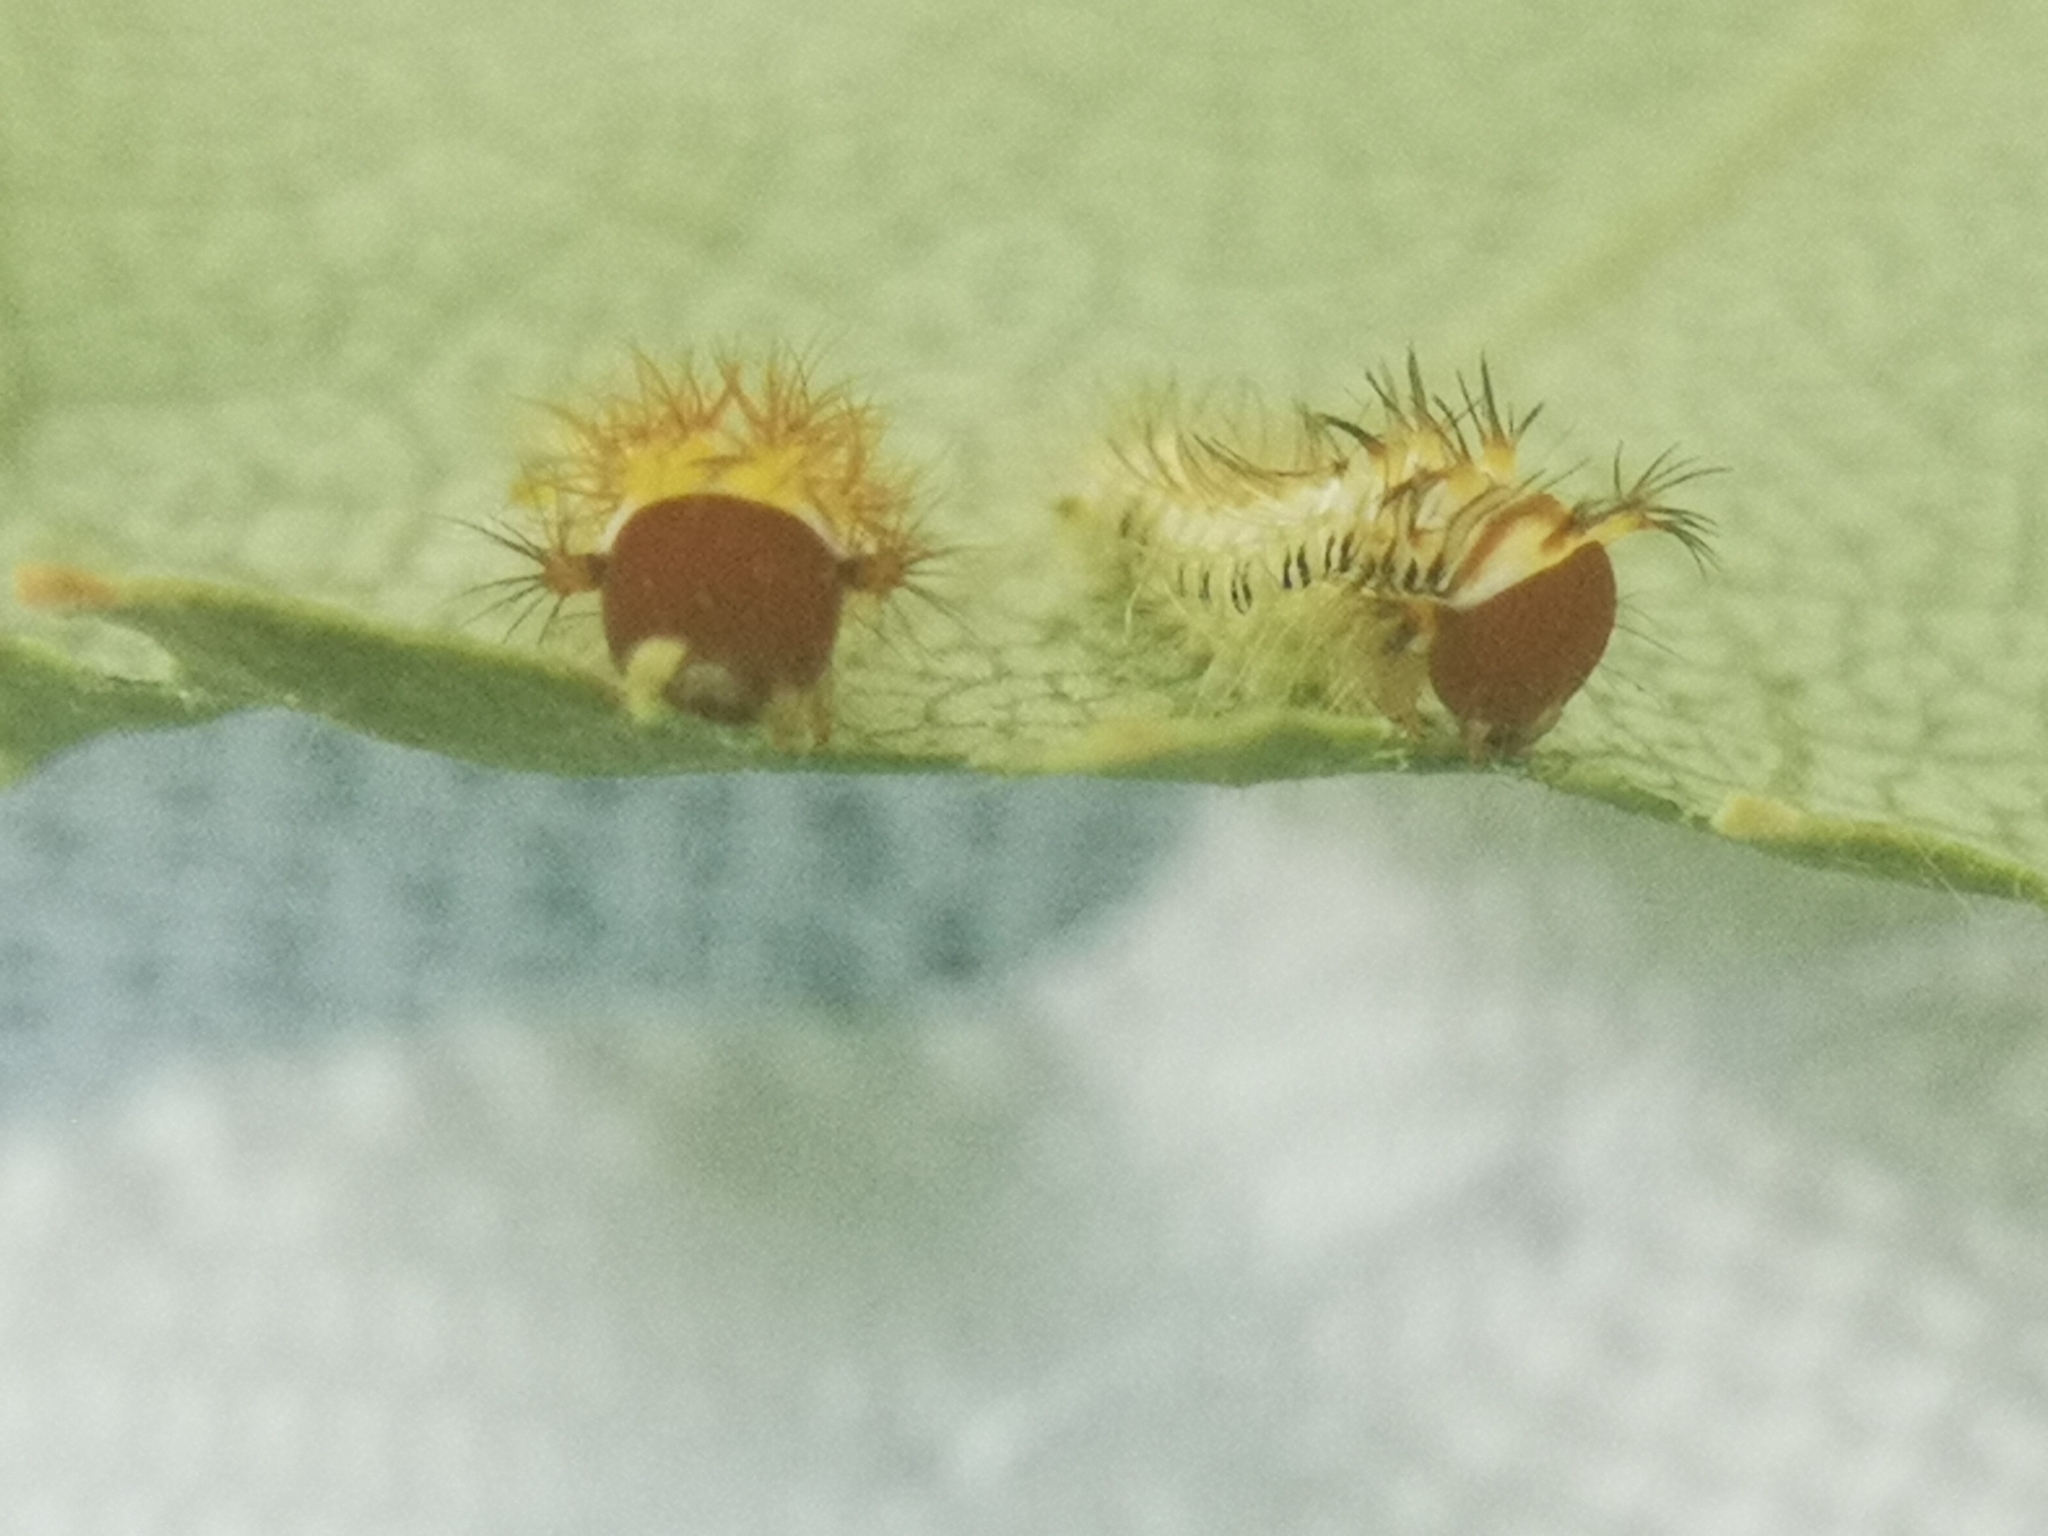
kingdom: Animalia
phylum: Arthropoda
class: Insecta
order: Lepidoptera
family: Saturniidae
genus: Antheraea
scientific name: Antheraea polyphemus
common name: Polyphemus moth
